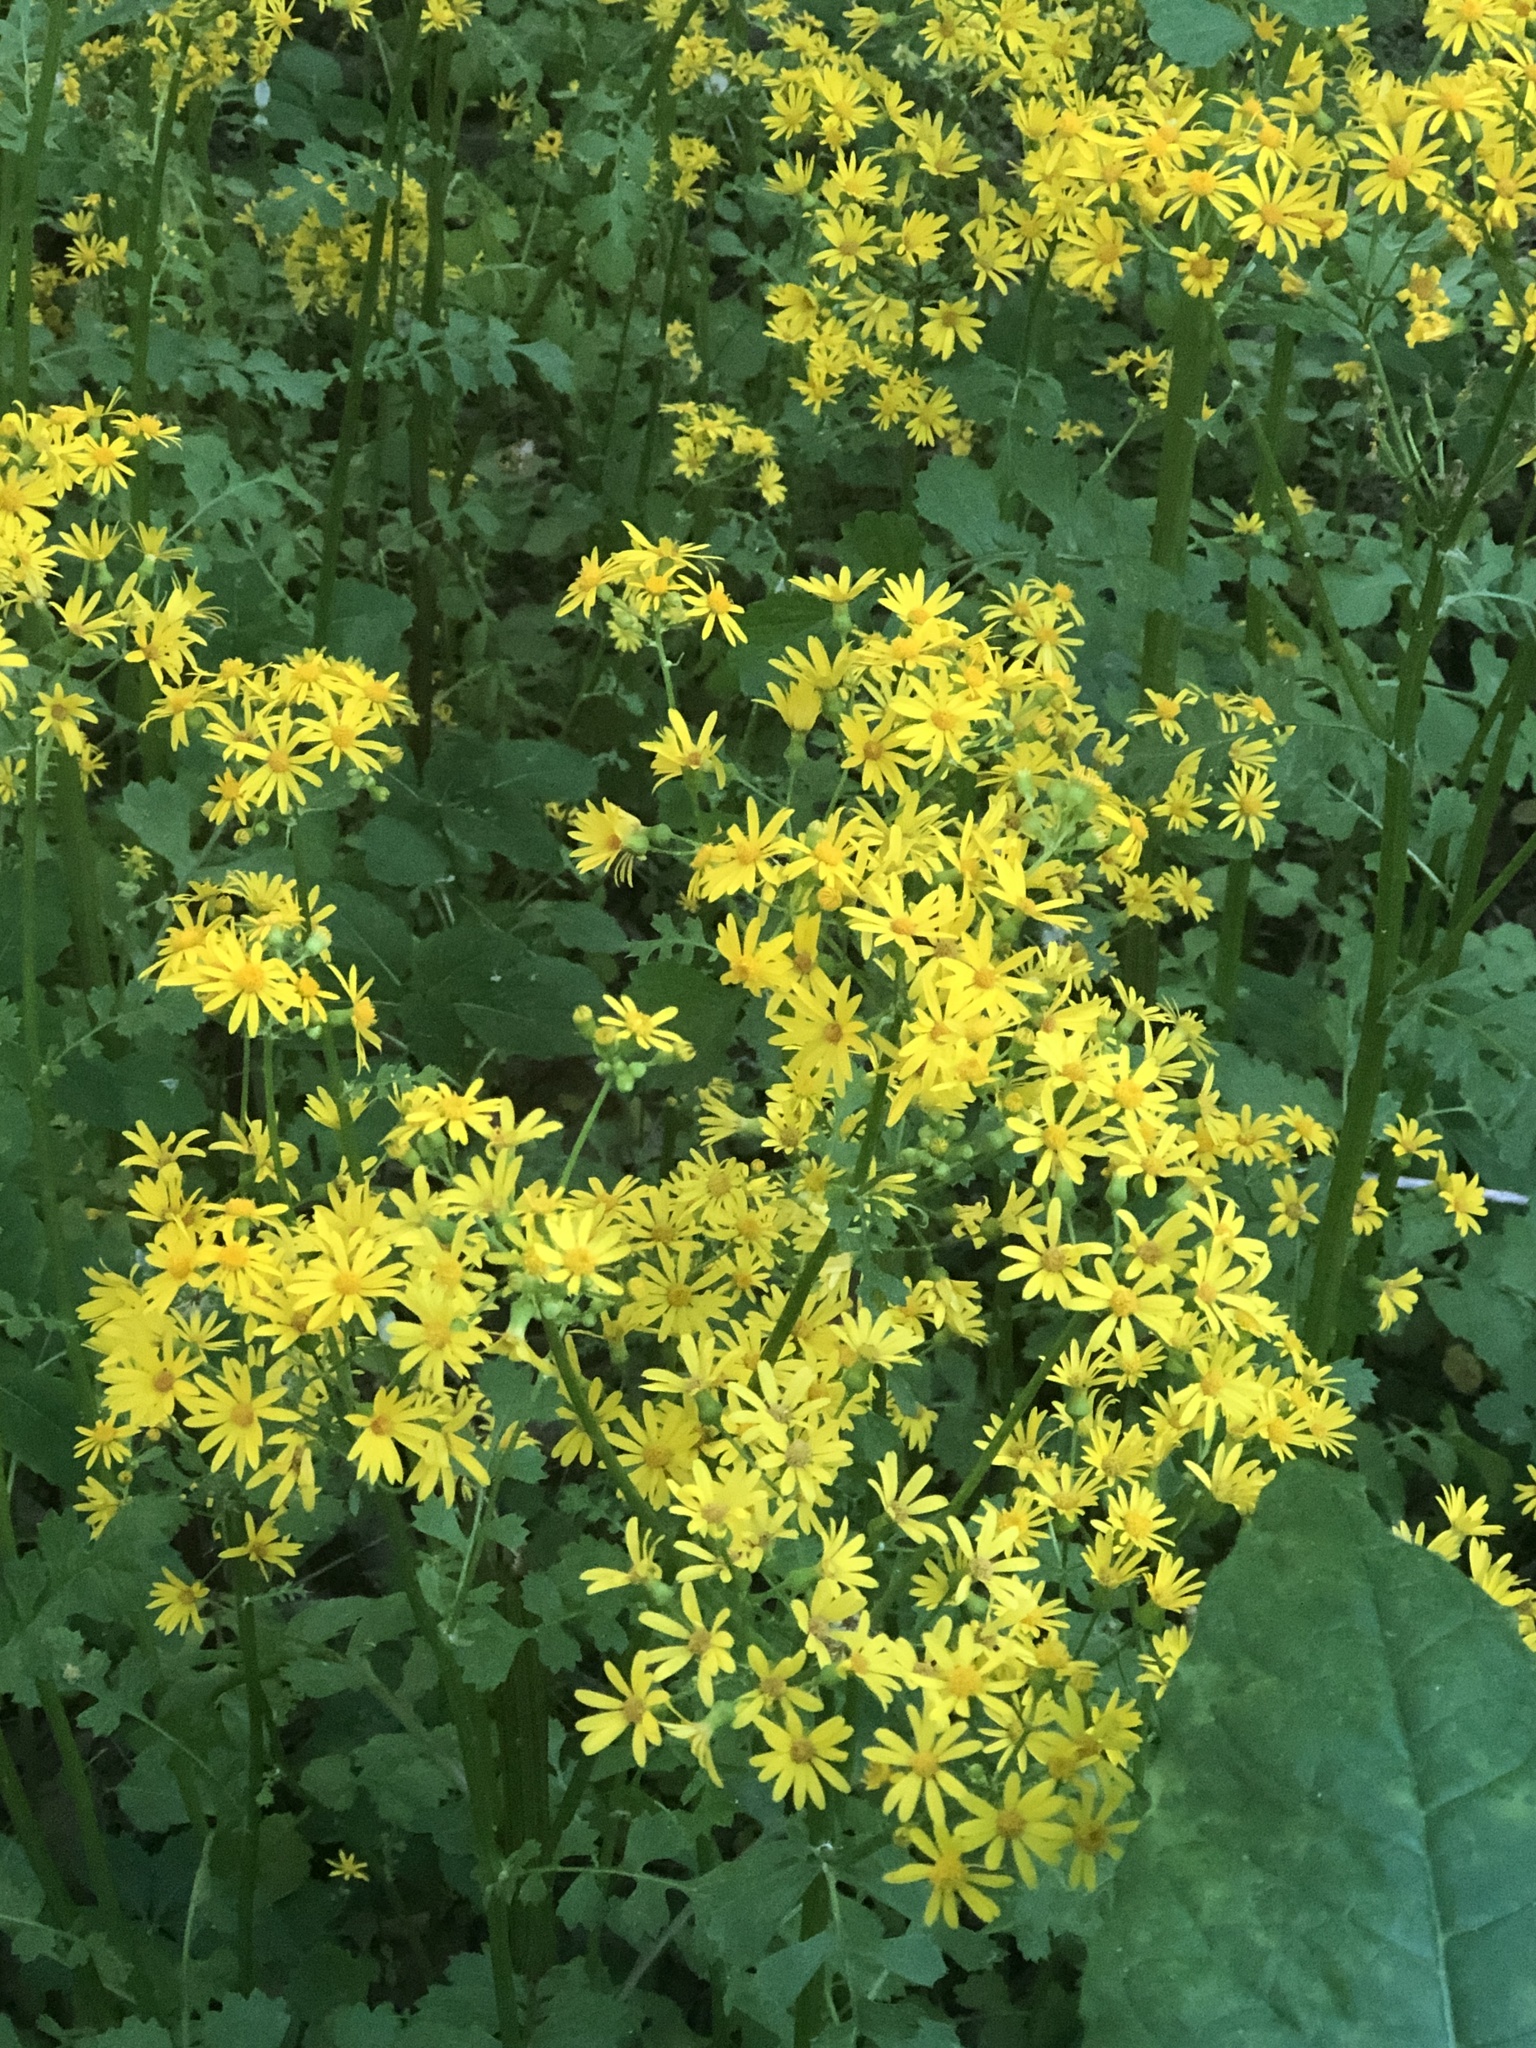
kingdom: Plantae
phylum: Tracheophyta
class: Magnoliopsida
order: Asterales
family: Asteraceae
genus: Packera
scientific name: Packera glabella
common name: Butterweed
